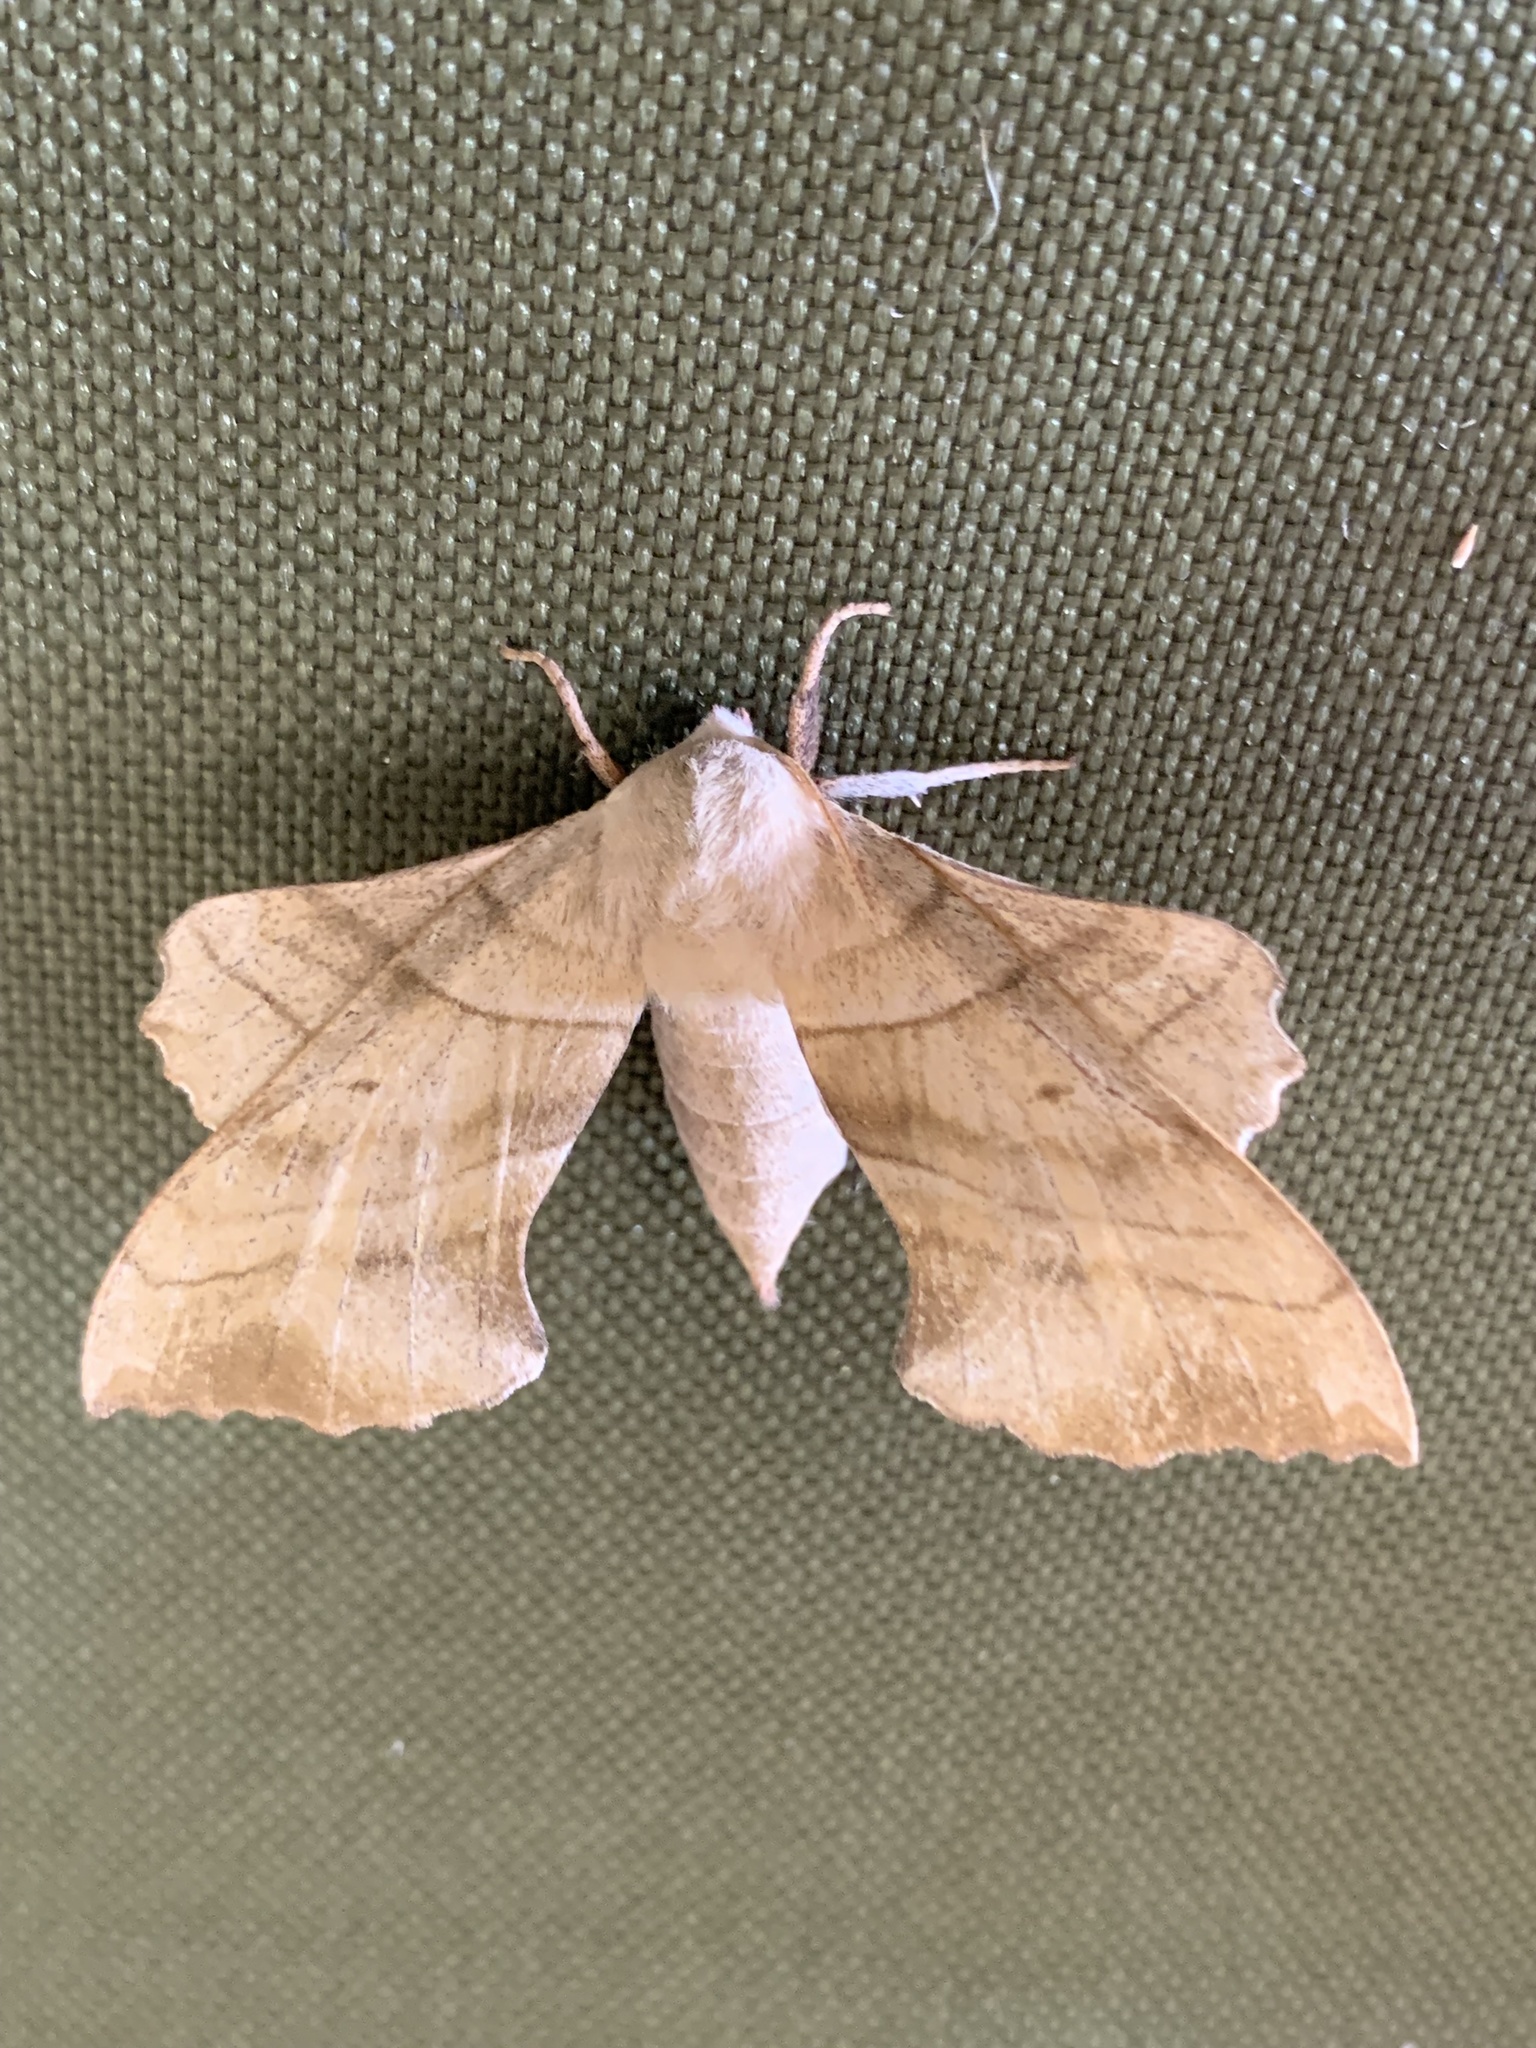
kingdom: Animalia
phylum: Arthropoda
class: Insecta
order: Lepidoptera
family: Sphingidae
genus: Amorpha
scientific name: Amorpha juglandis
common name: Walnut sphinx
